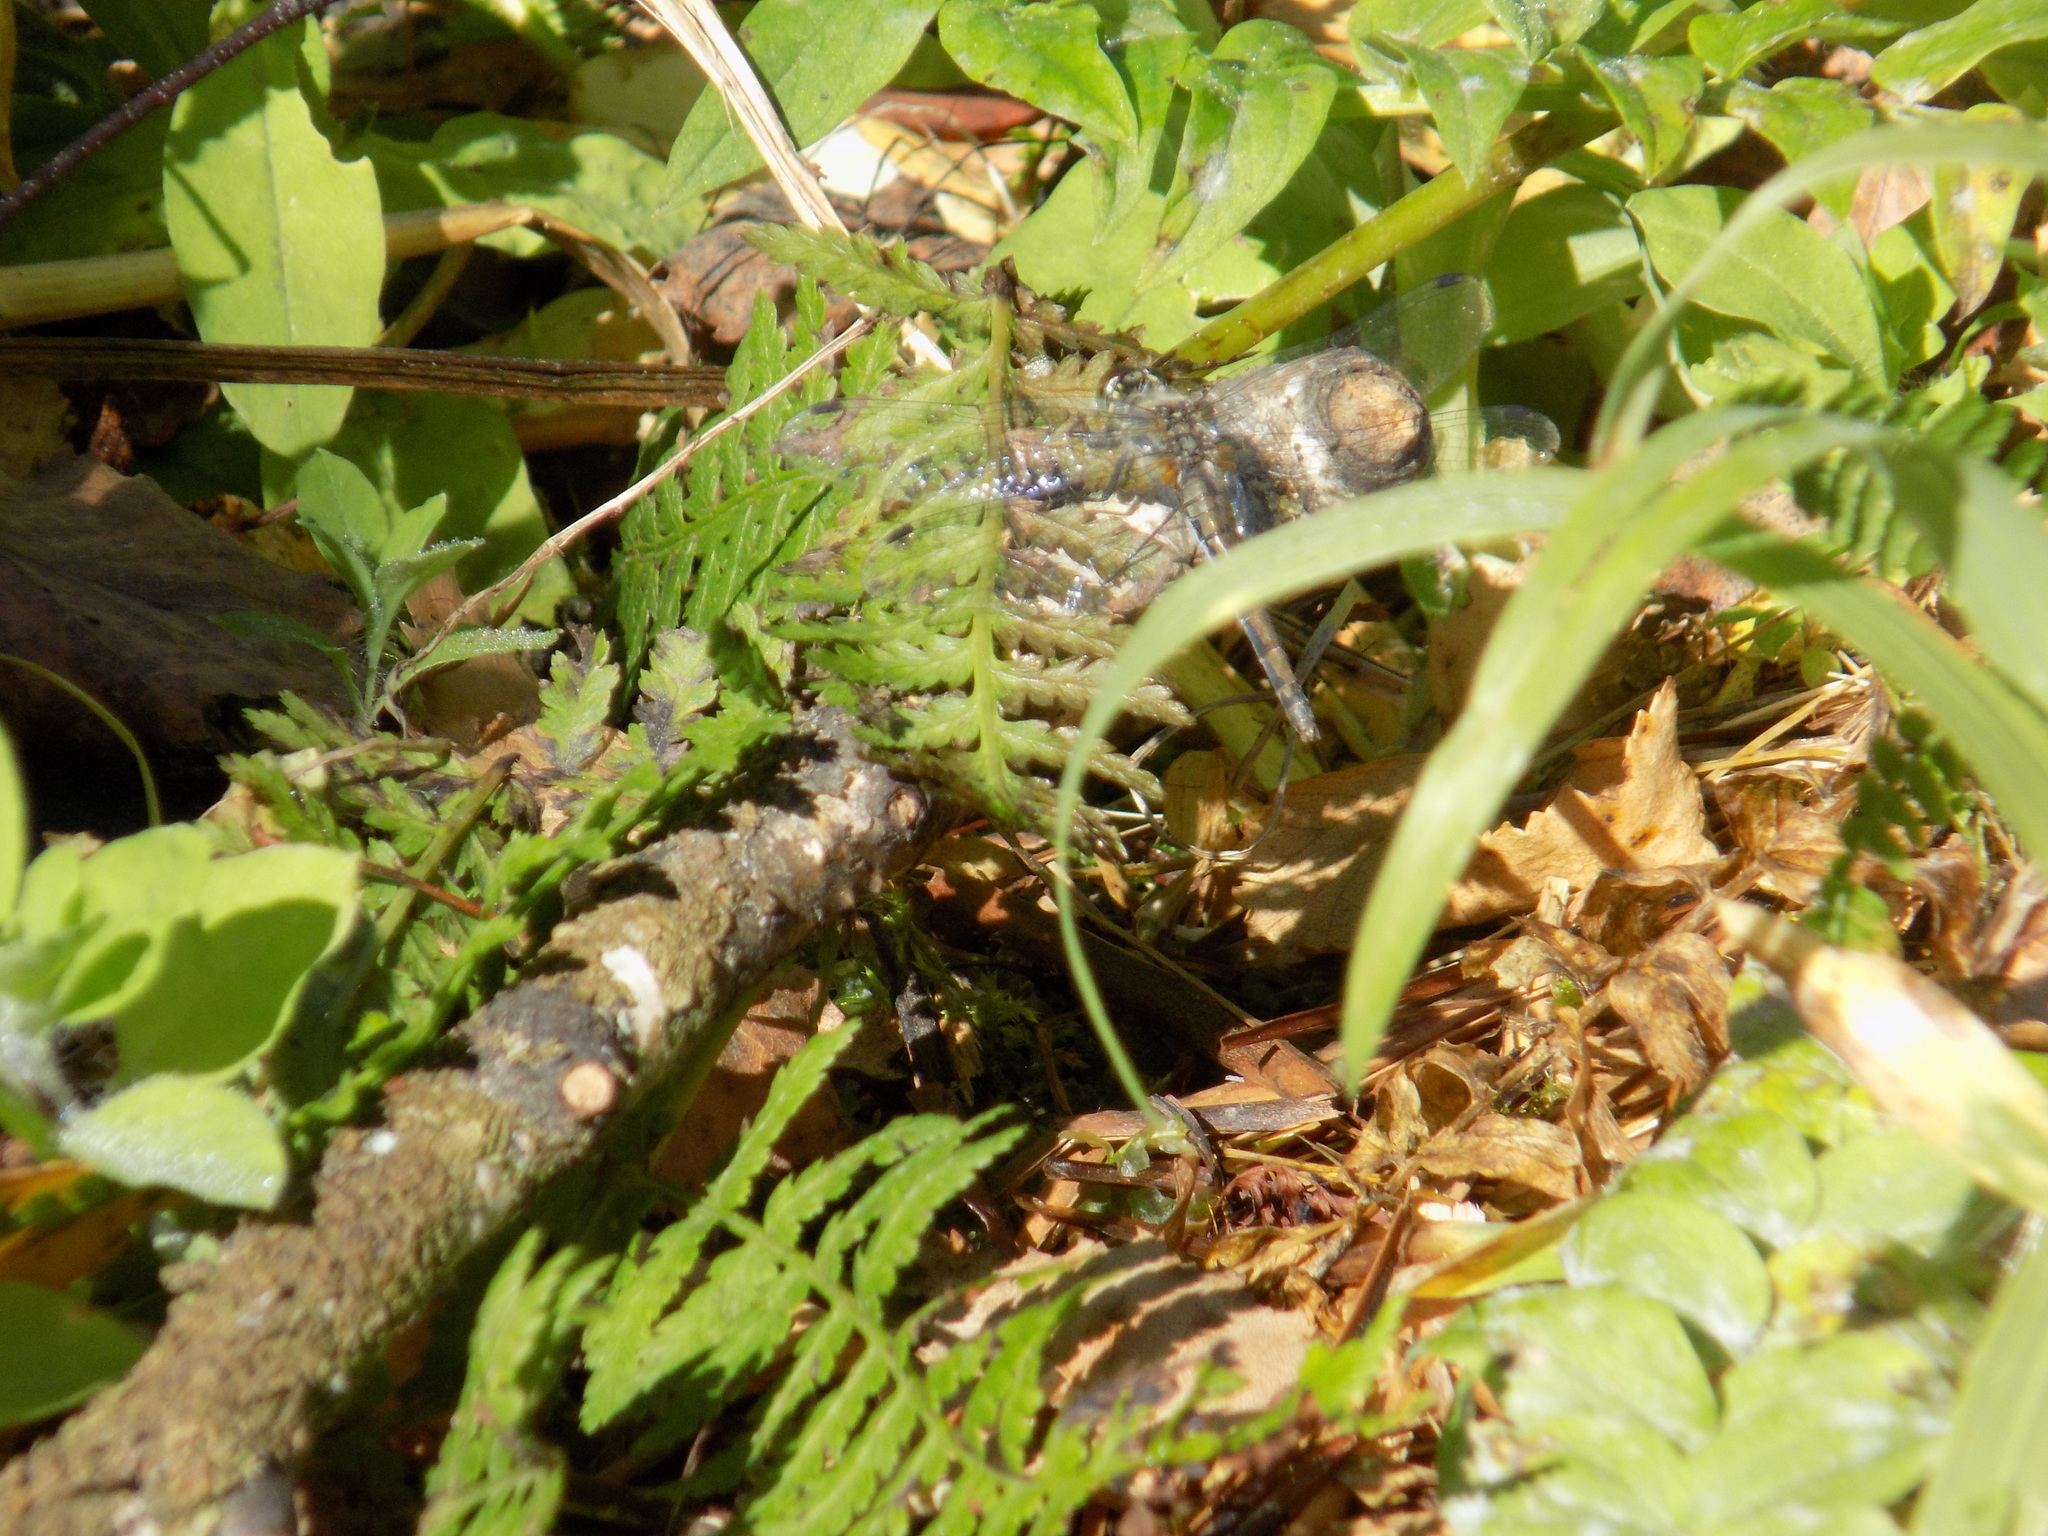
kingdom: Animalia
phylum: Arthropoda
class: Insecta
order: Odonata
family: Libellulidae
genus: Sympetrum
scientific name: Sympetrum danae
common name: Black darter
